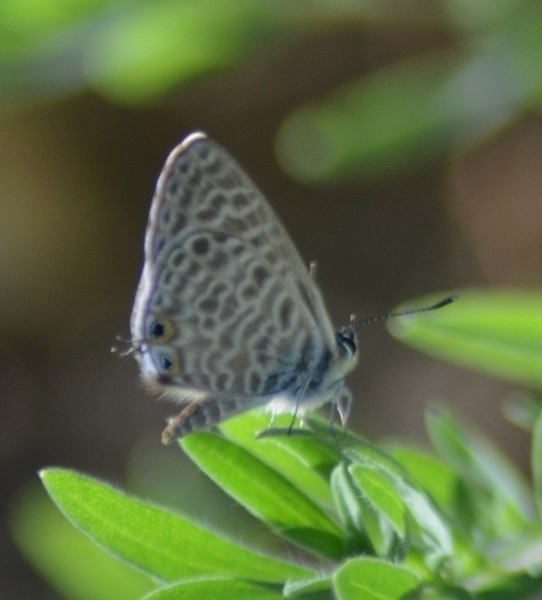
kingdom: Animalia
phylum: Arthropoda
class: Insecta
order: Lepidoptera
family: Lycaenidae
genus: Leptotes
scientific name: Leptotes pirithous
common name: Lang's short-tailed blue
